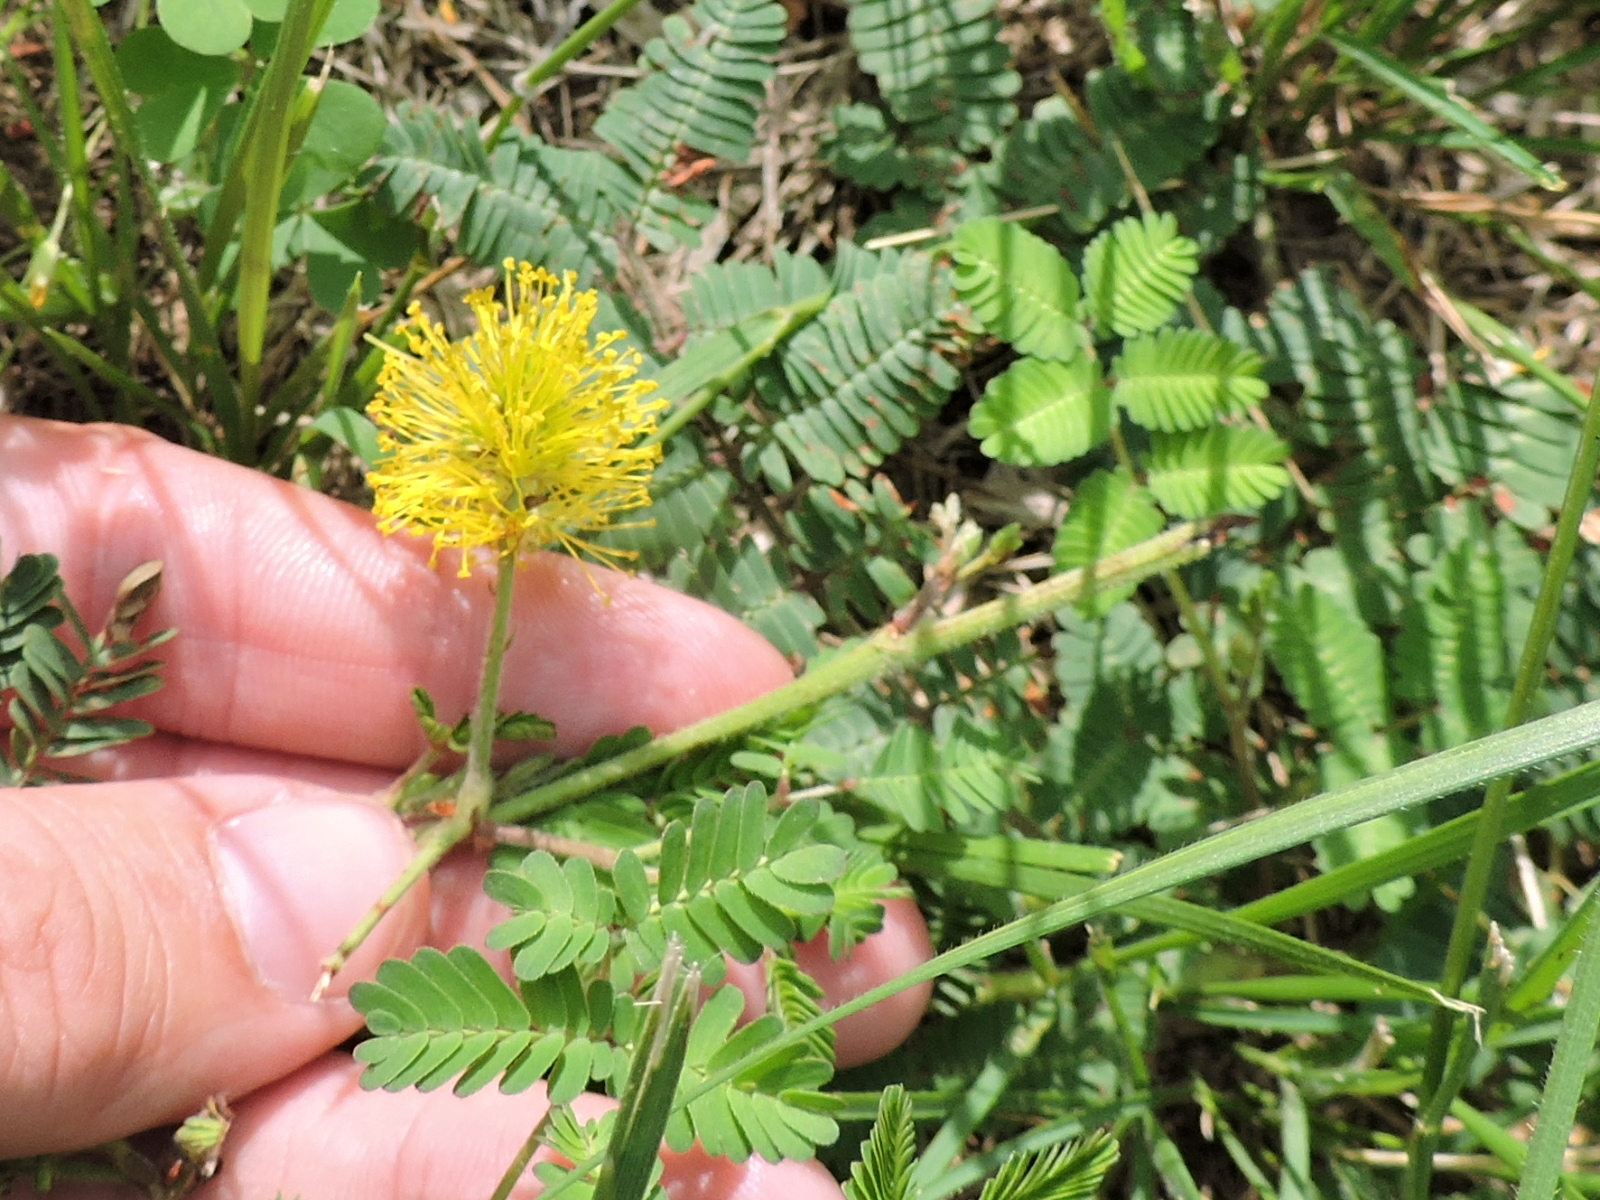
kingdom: Plantae
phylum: Tracheophyta
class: Magnoliopsida
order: Fabales
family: Fabaceae
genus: Neptunia
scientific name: Neptunia lutea
